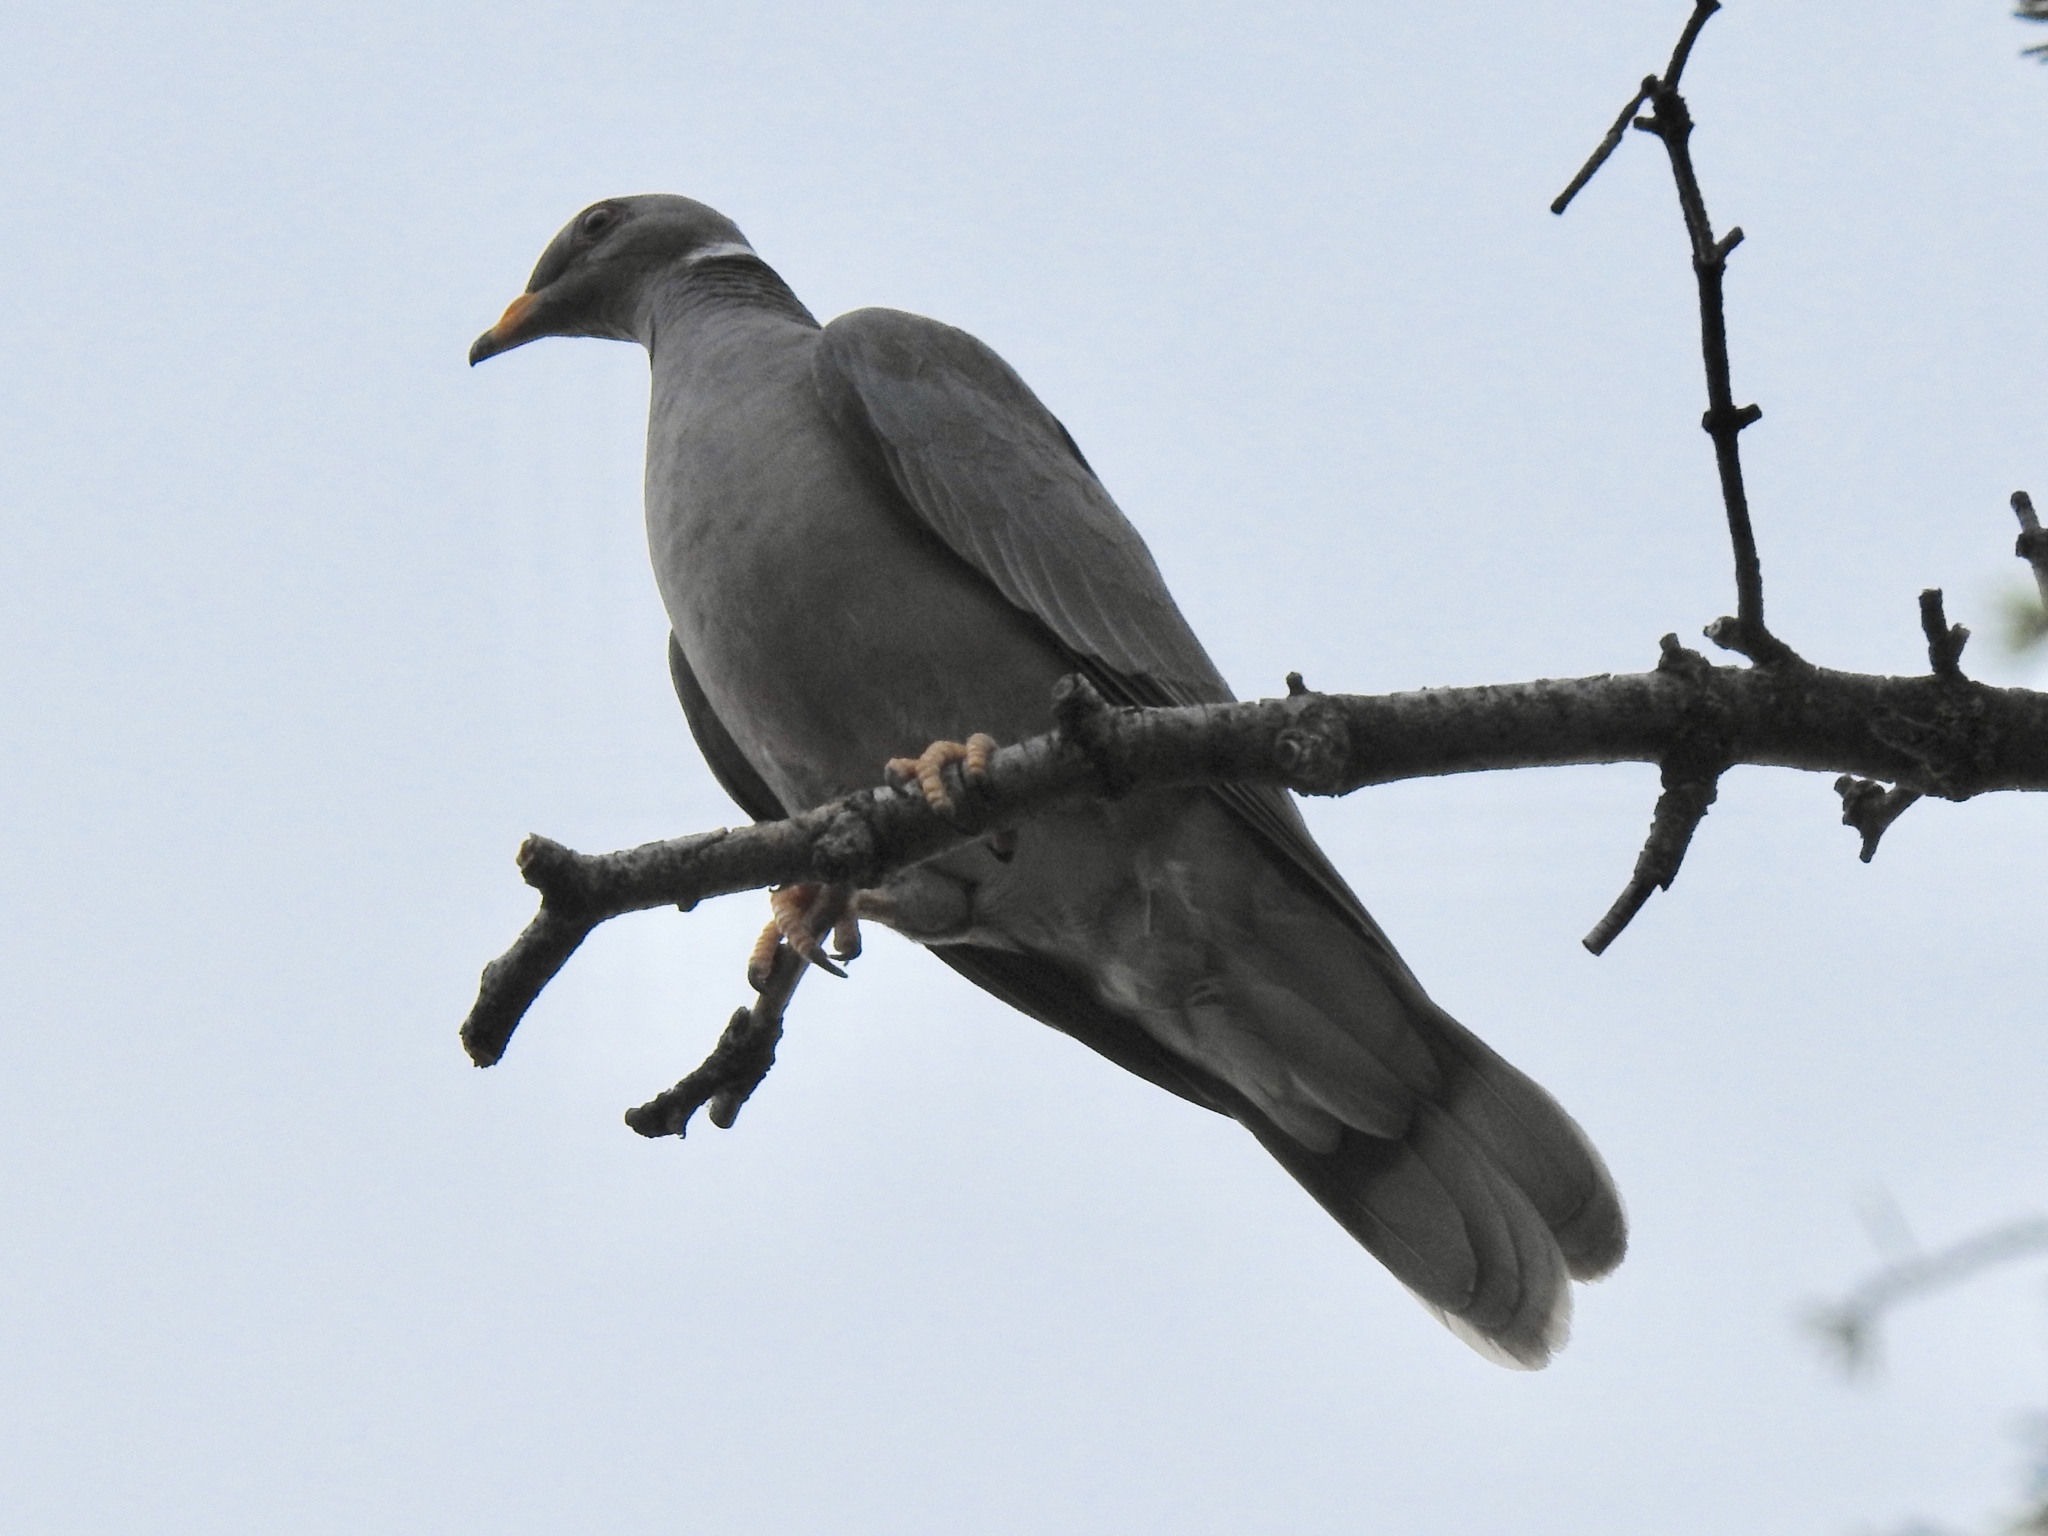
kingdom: Animalia
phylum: Chordata
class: Aves
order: Columbiformes
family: Columbidae
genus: Patagioenas
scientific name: Patagioenas fasciata
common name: Band-tailed pigeon
